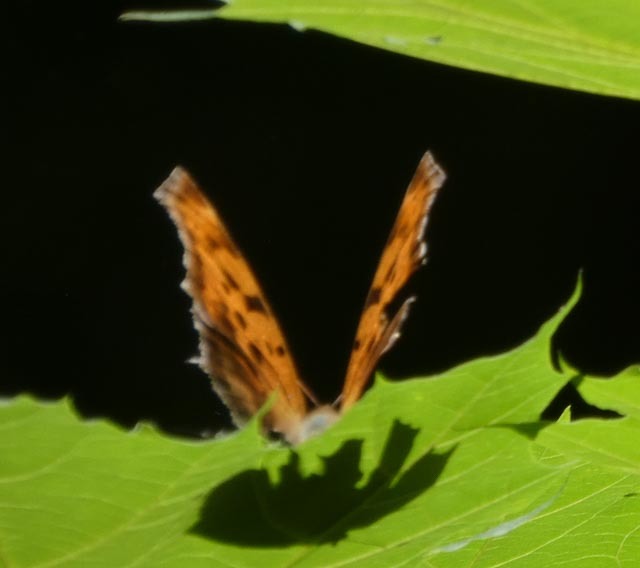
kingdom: Animalia
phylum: Arthropoda
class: Insecta
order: Lepidoptera
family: Nymphalidae
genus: Polygonia
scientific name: Polygonia interrogationis
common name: Question mark
